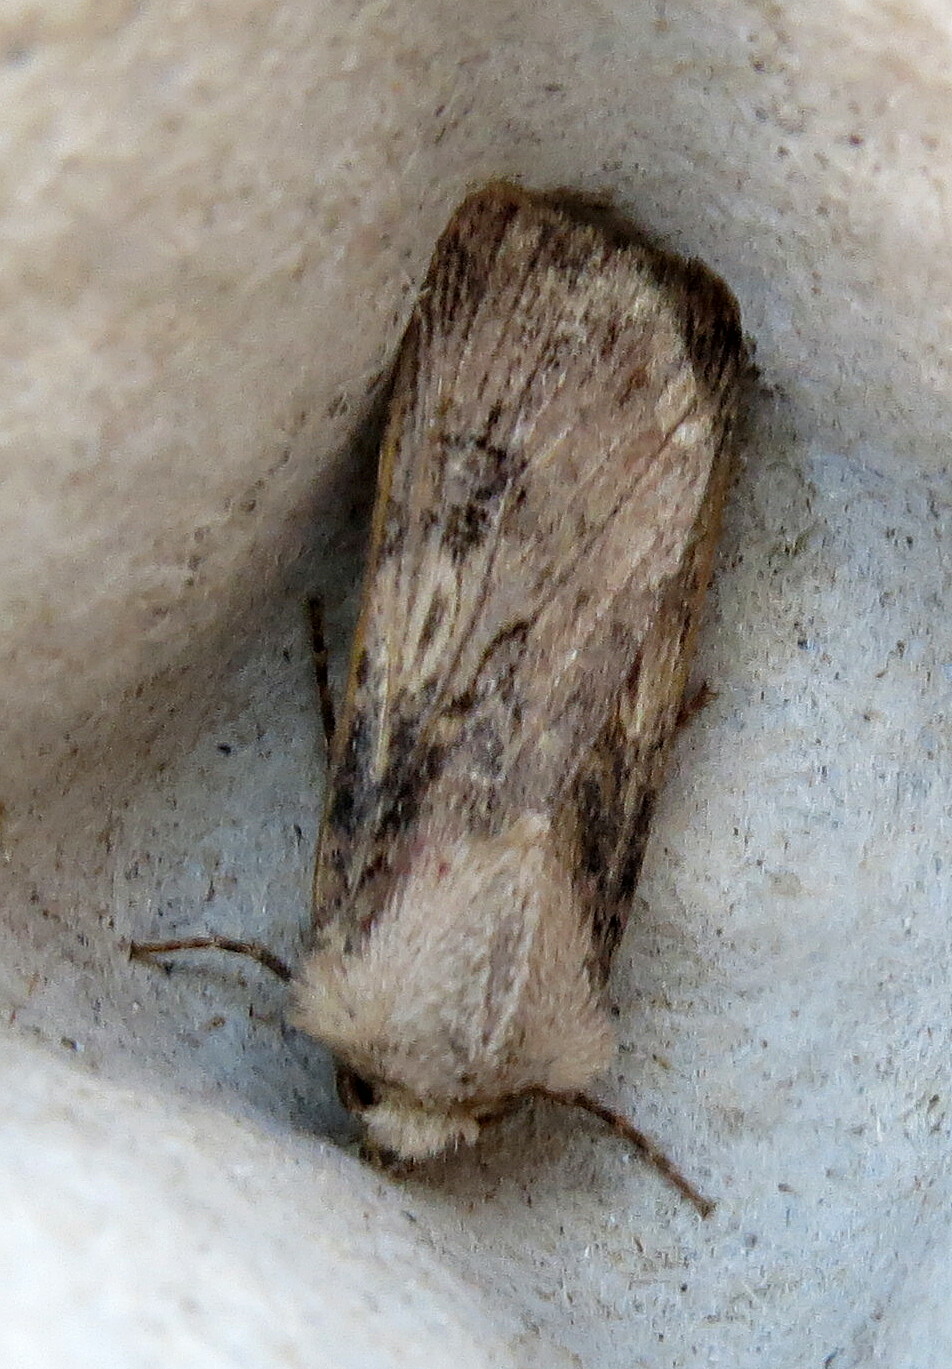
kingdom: Animalia
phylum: Arthropoda
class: Insecta
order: Lepidoptera
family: Noctuidae
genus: Agrotis
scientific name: Agrotis puta
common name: Shuttle-shaped dart
